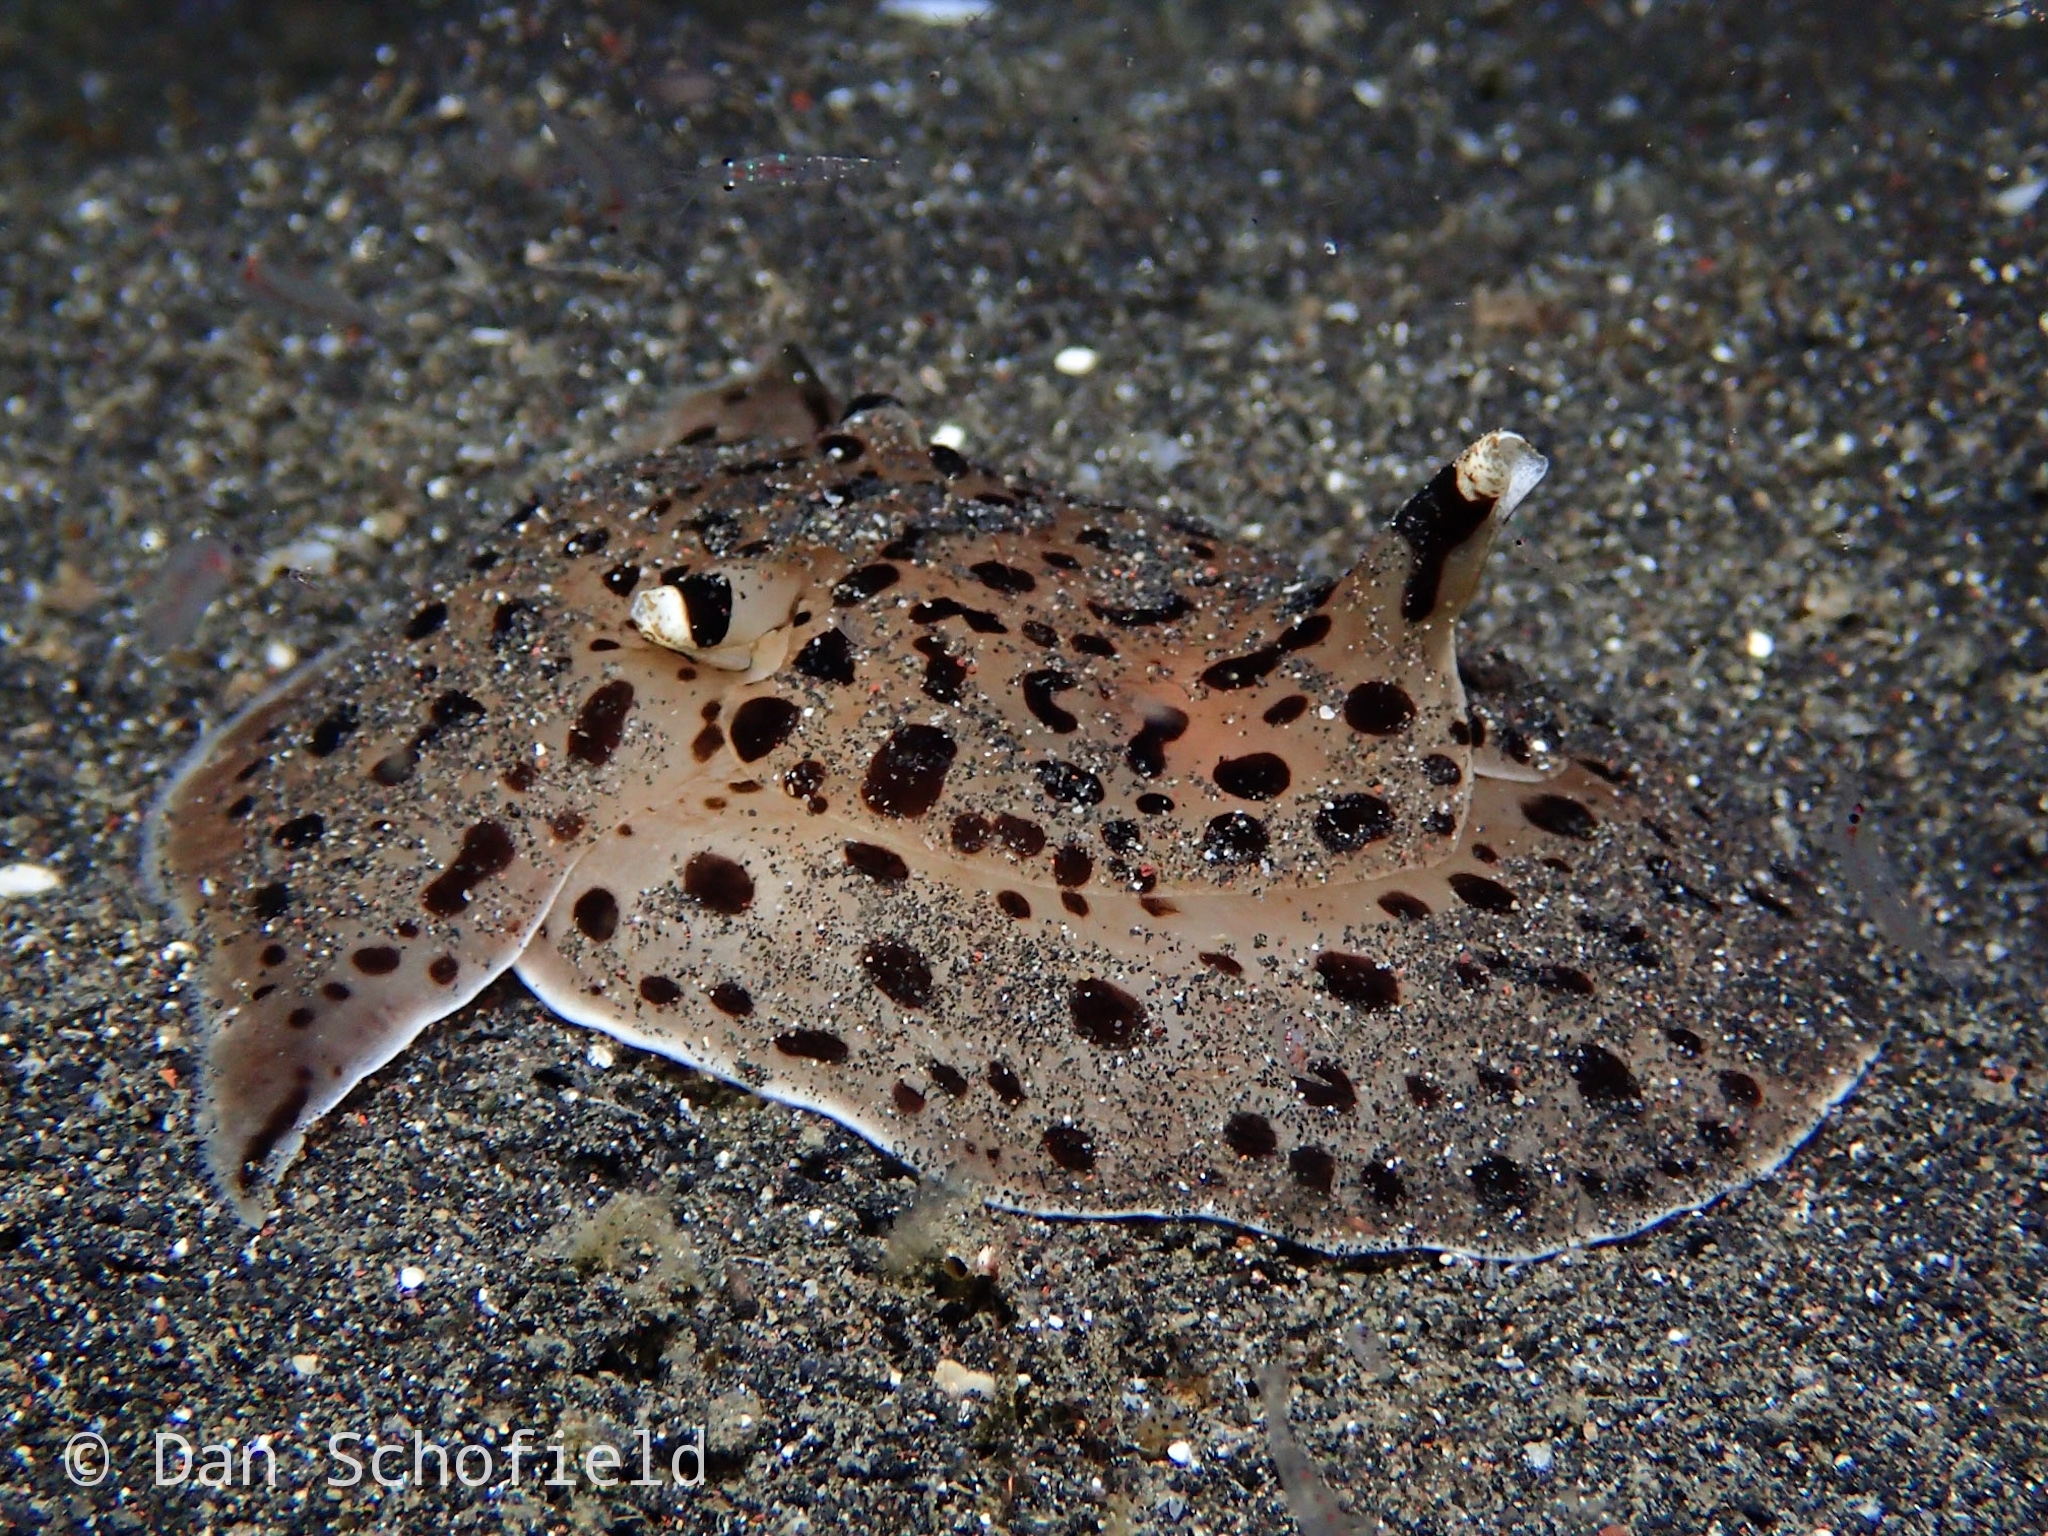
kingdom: Animalia
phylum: Mollusca
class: Gastropoda
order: Pleurobranchida
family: Pleurobranchaeidae
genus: Euselenops
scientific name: Euselenops luniceps
